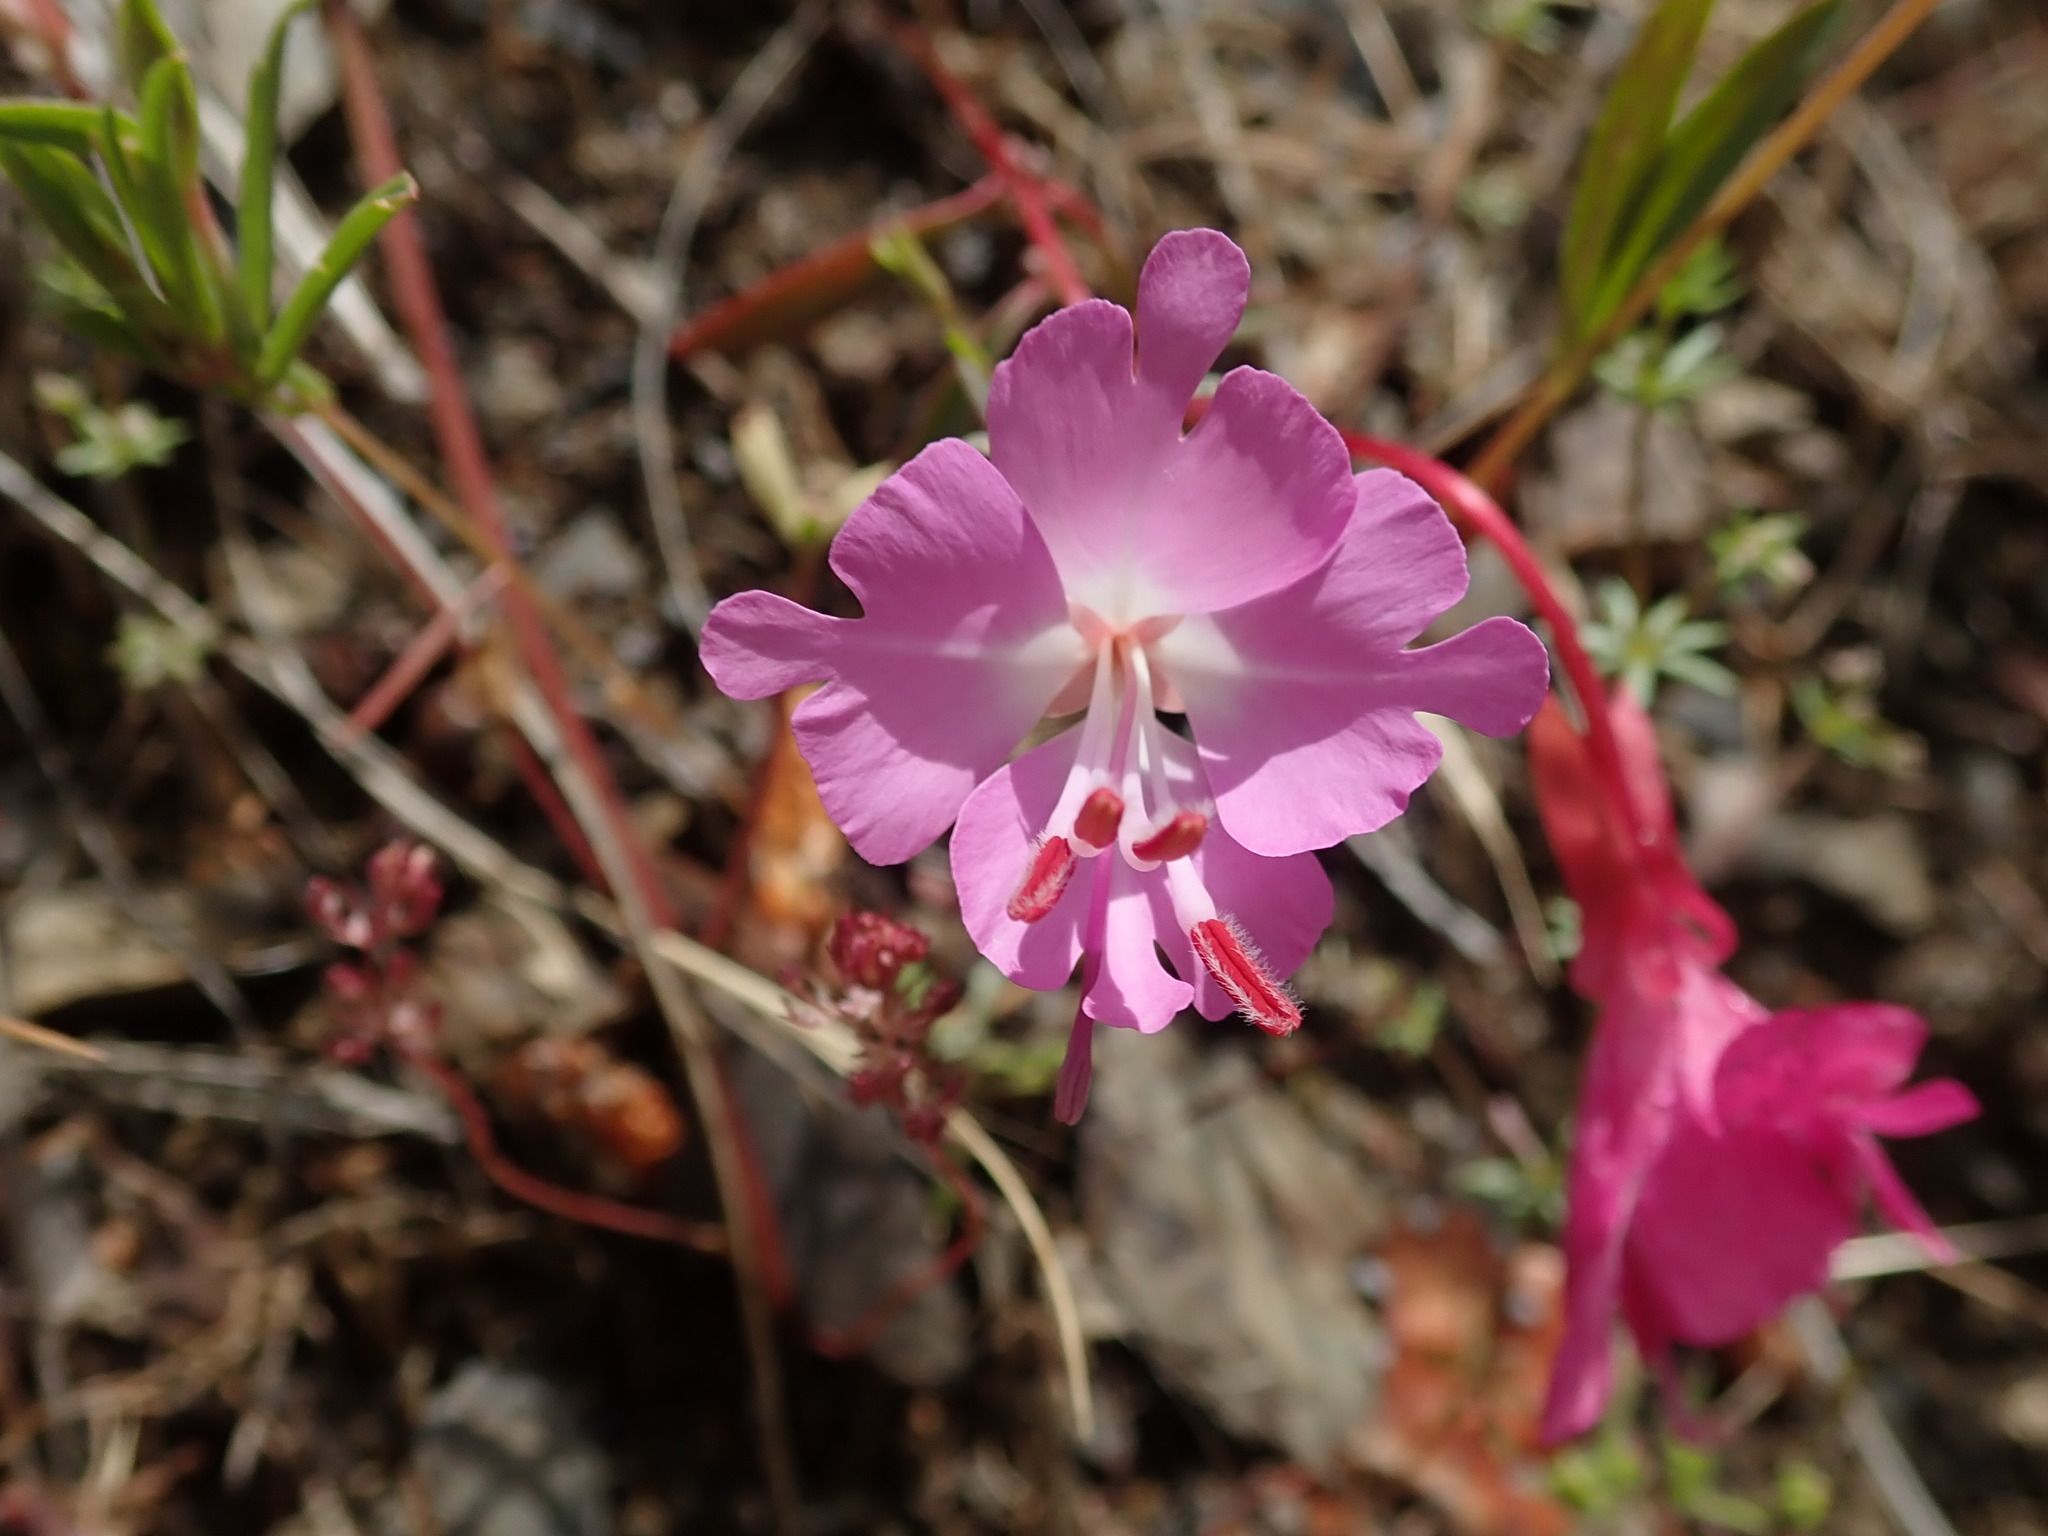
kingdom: Plantae
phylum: Tracheophyta
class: Magnoliopsida
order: Myrtales
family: Onagraceae
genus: Clarkia
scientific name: Clarkia breweri
